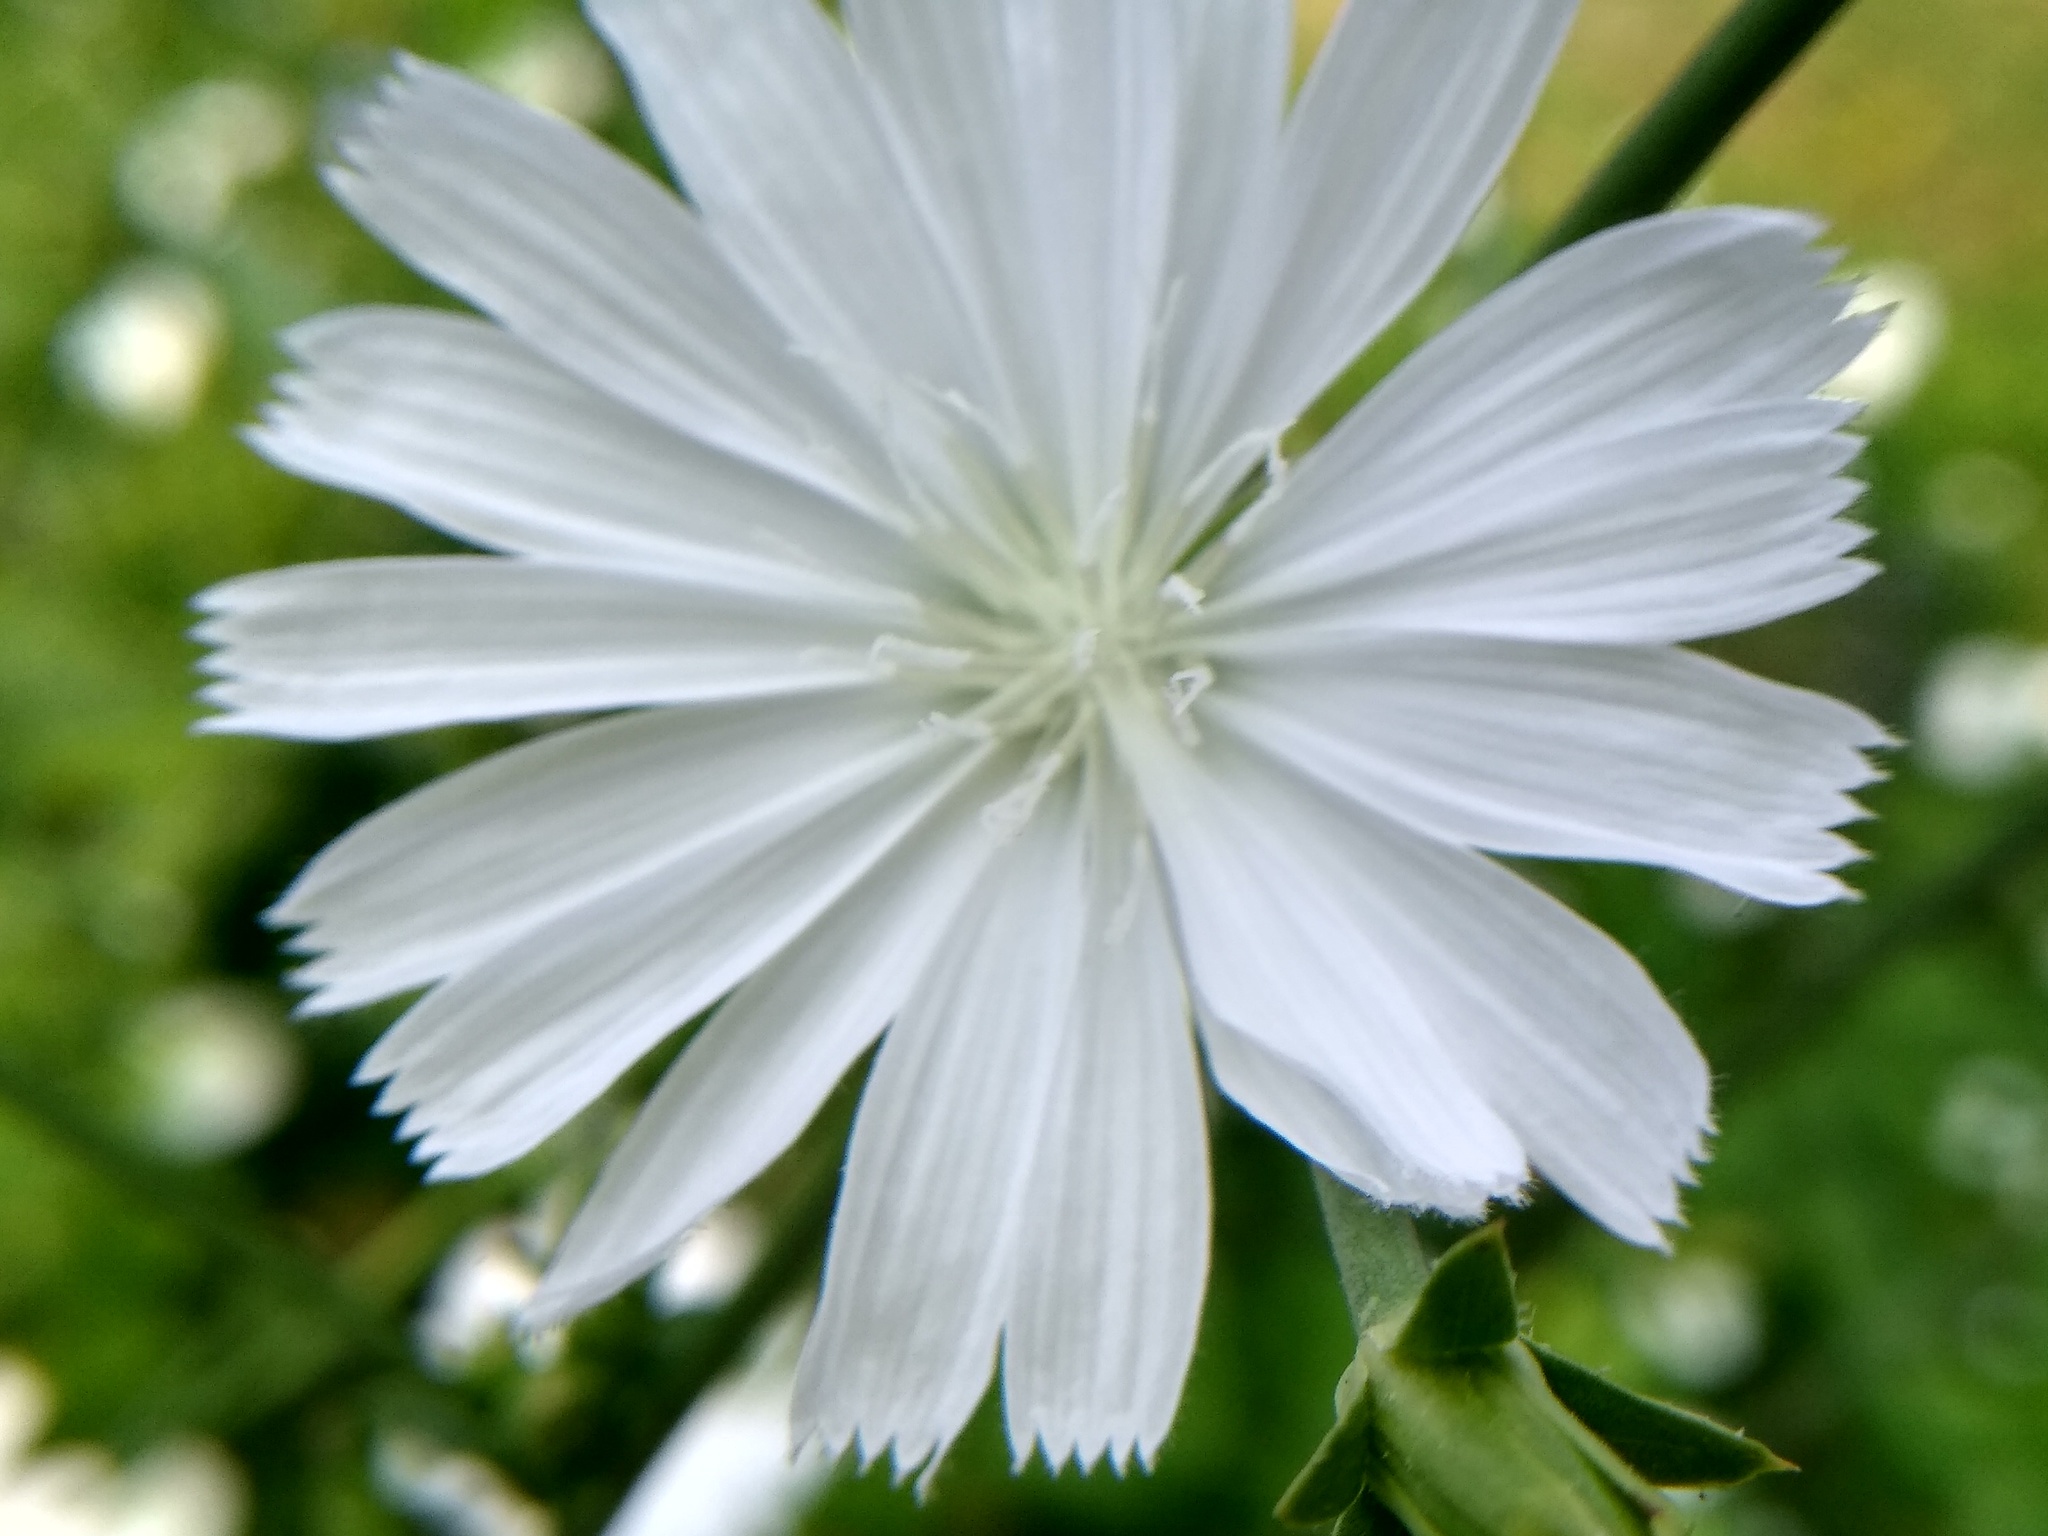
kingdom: Plantae
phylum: Tracheophyta
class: Magnoliopsida
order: Asterales
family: Asteraceae
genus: Cichorium
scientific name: Cichorium intybus
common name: Chicory
